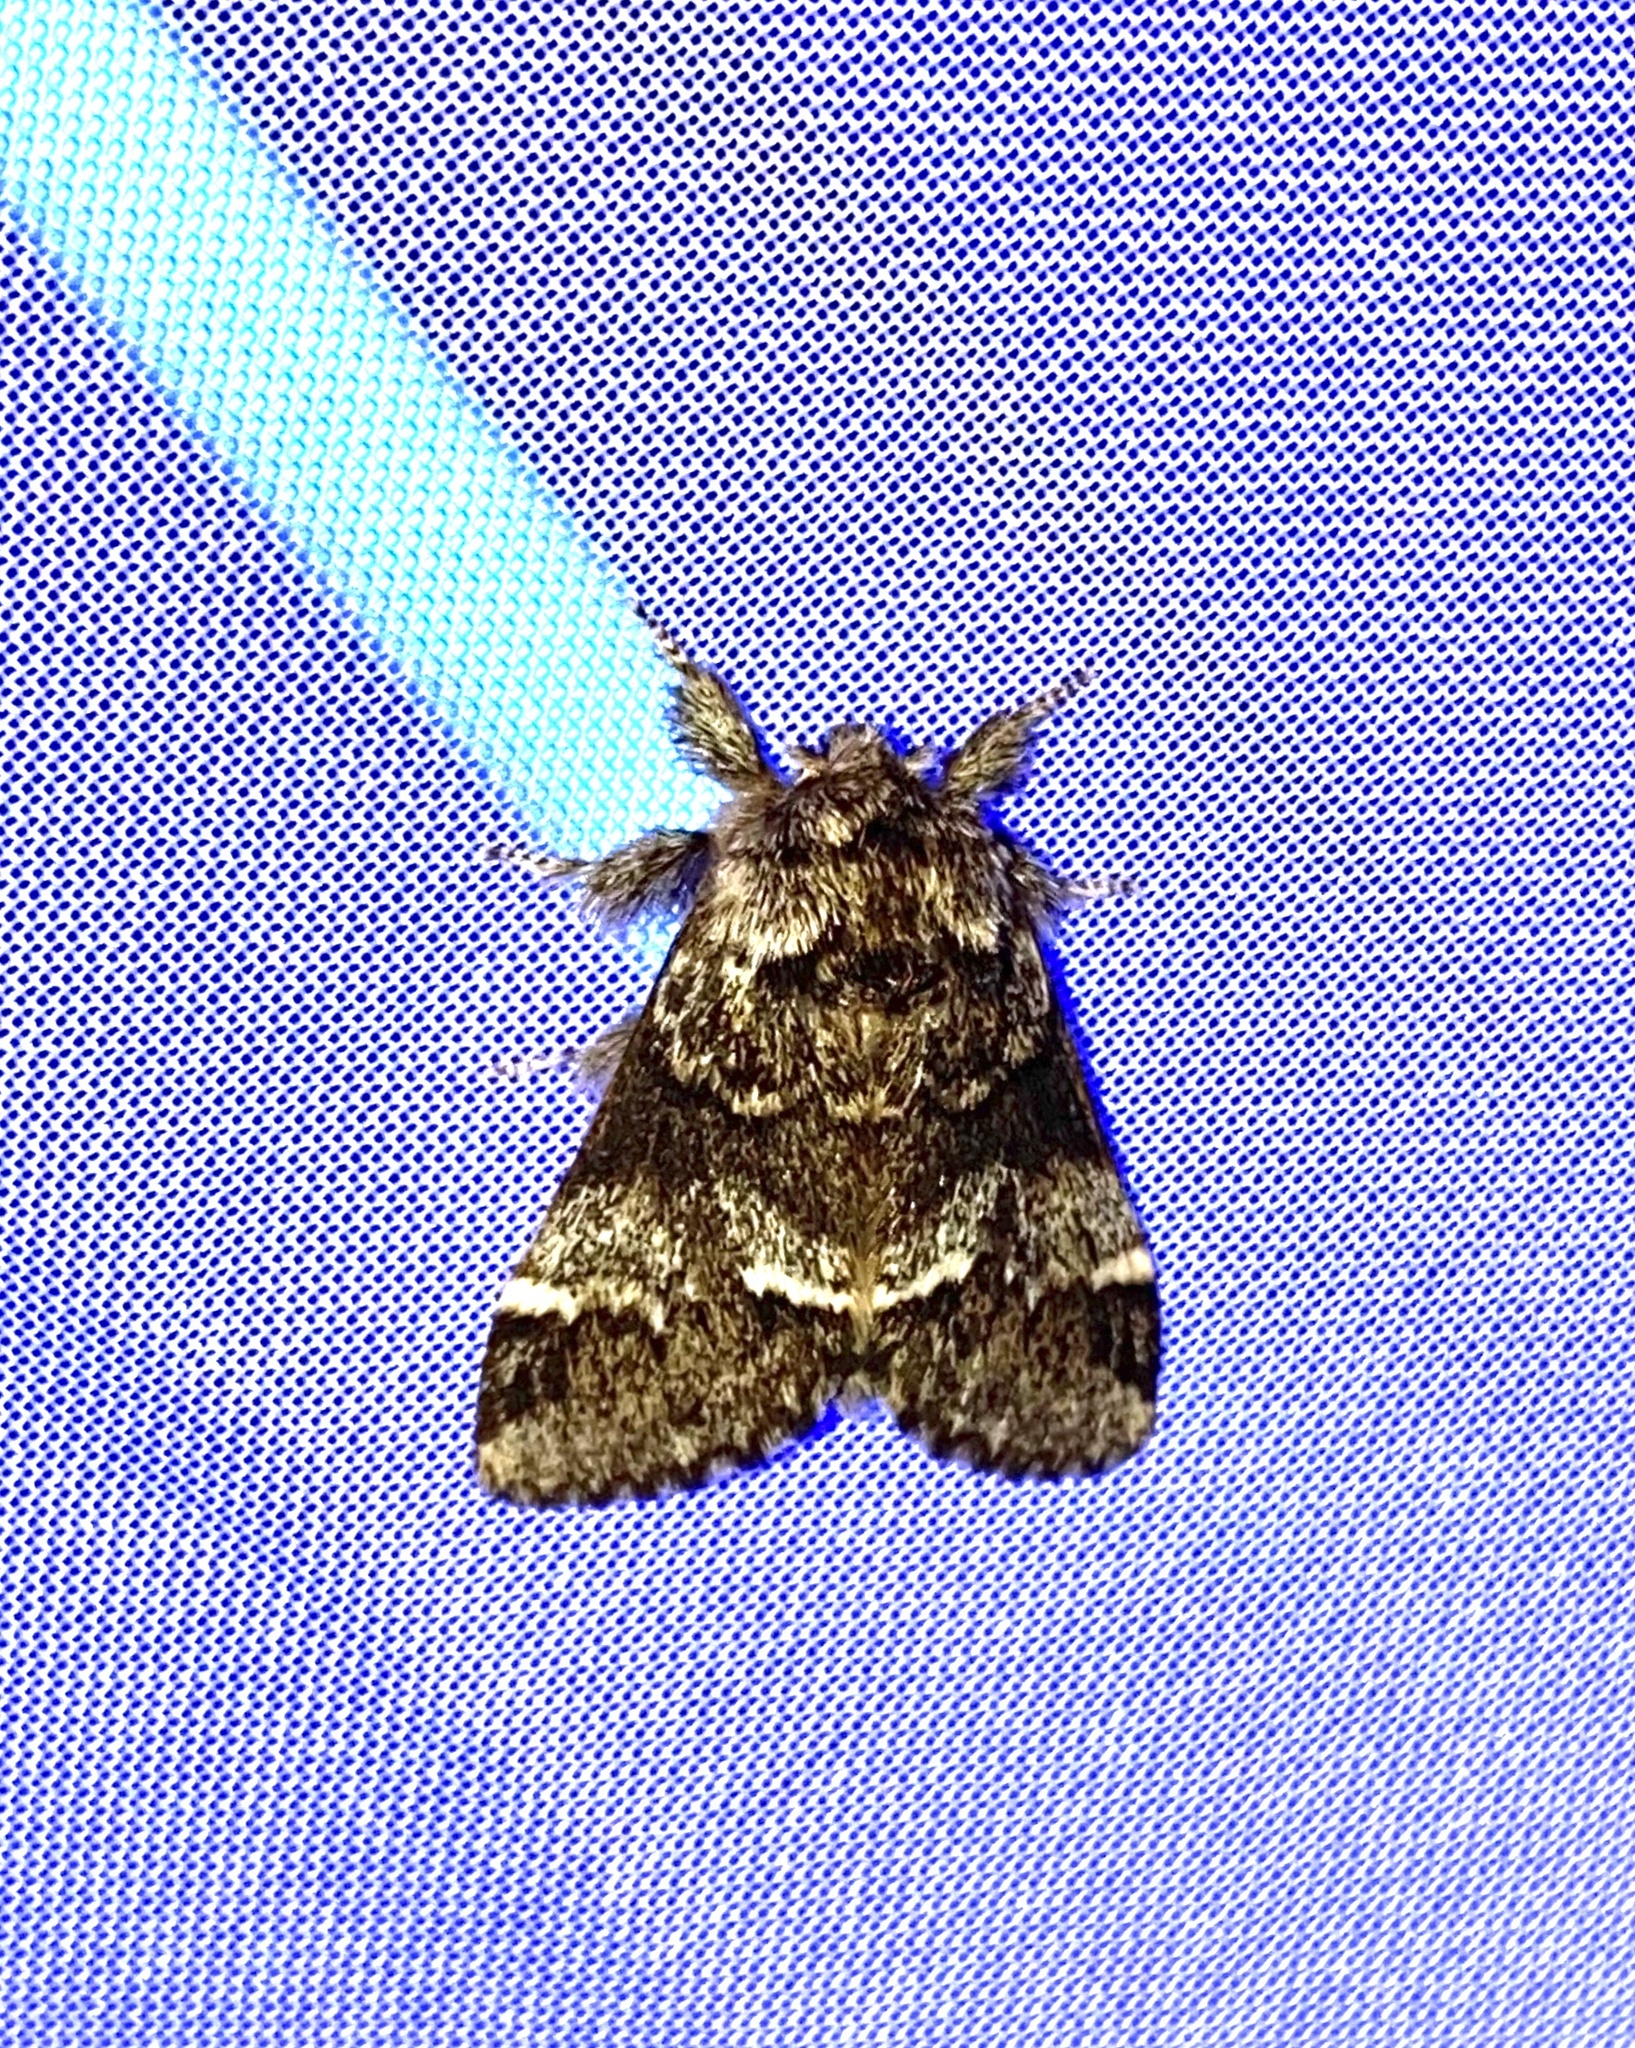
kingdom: Animalia
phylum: Arthropoda
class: Insecta
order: Lepidoptera
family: Notodontidae
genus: Drymonia
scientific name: Drymonia dodonaea
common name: Marbled brown
